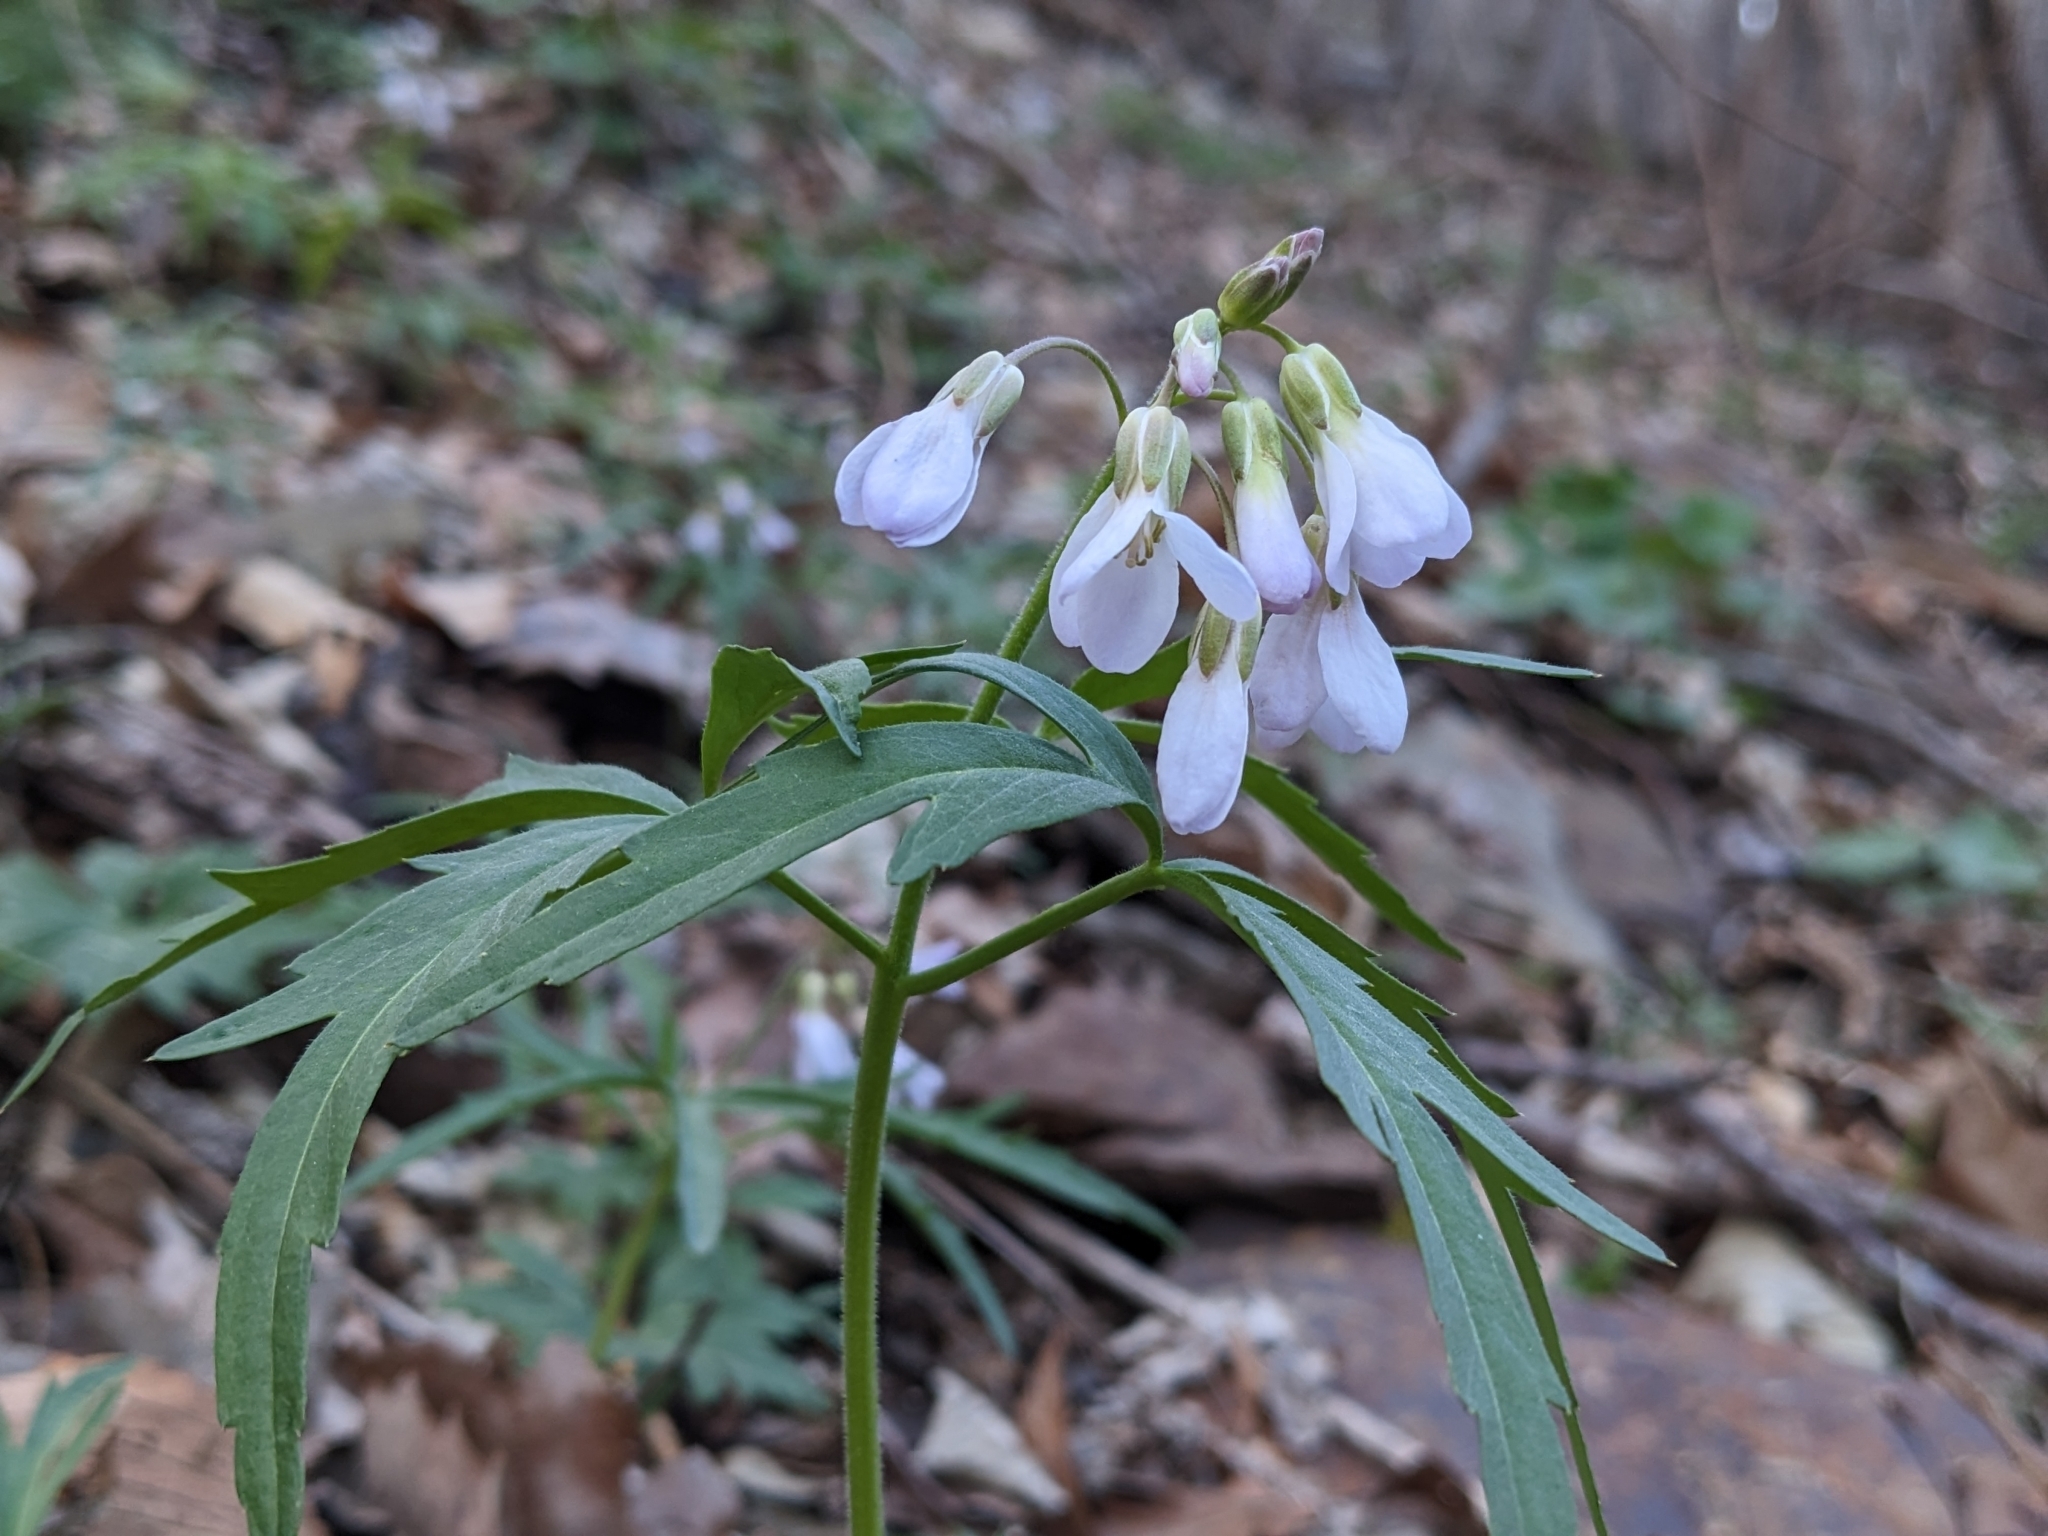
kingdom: Plantae
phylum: Tracheophyta
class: Magnoliopsida
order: Brassicales
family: Brassicaceae
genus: Cardamine
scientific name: Cardamine concatenata
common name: Cut-leaf toothcup
